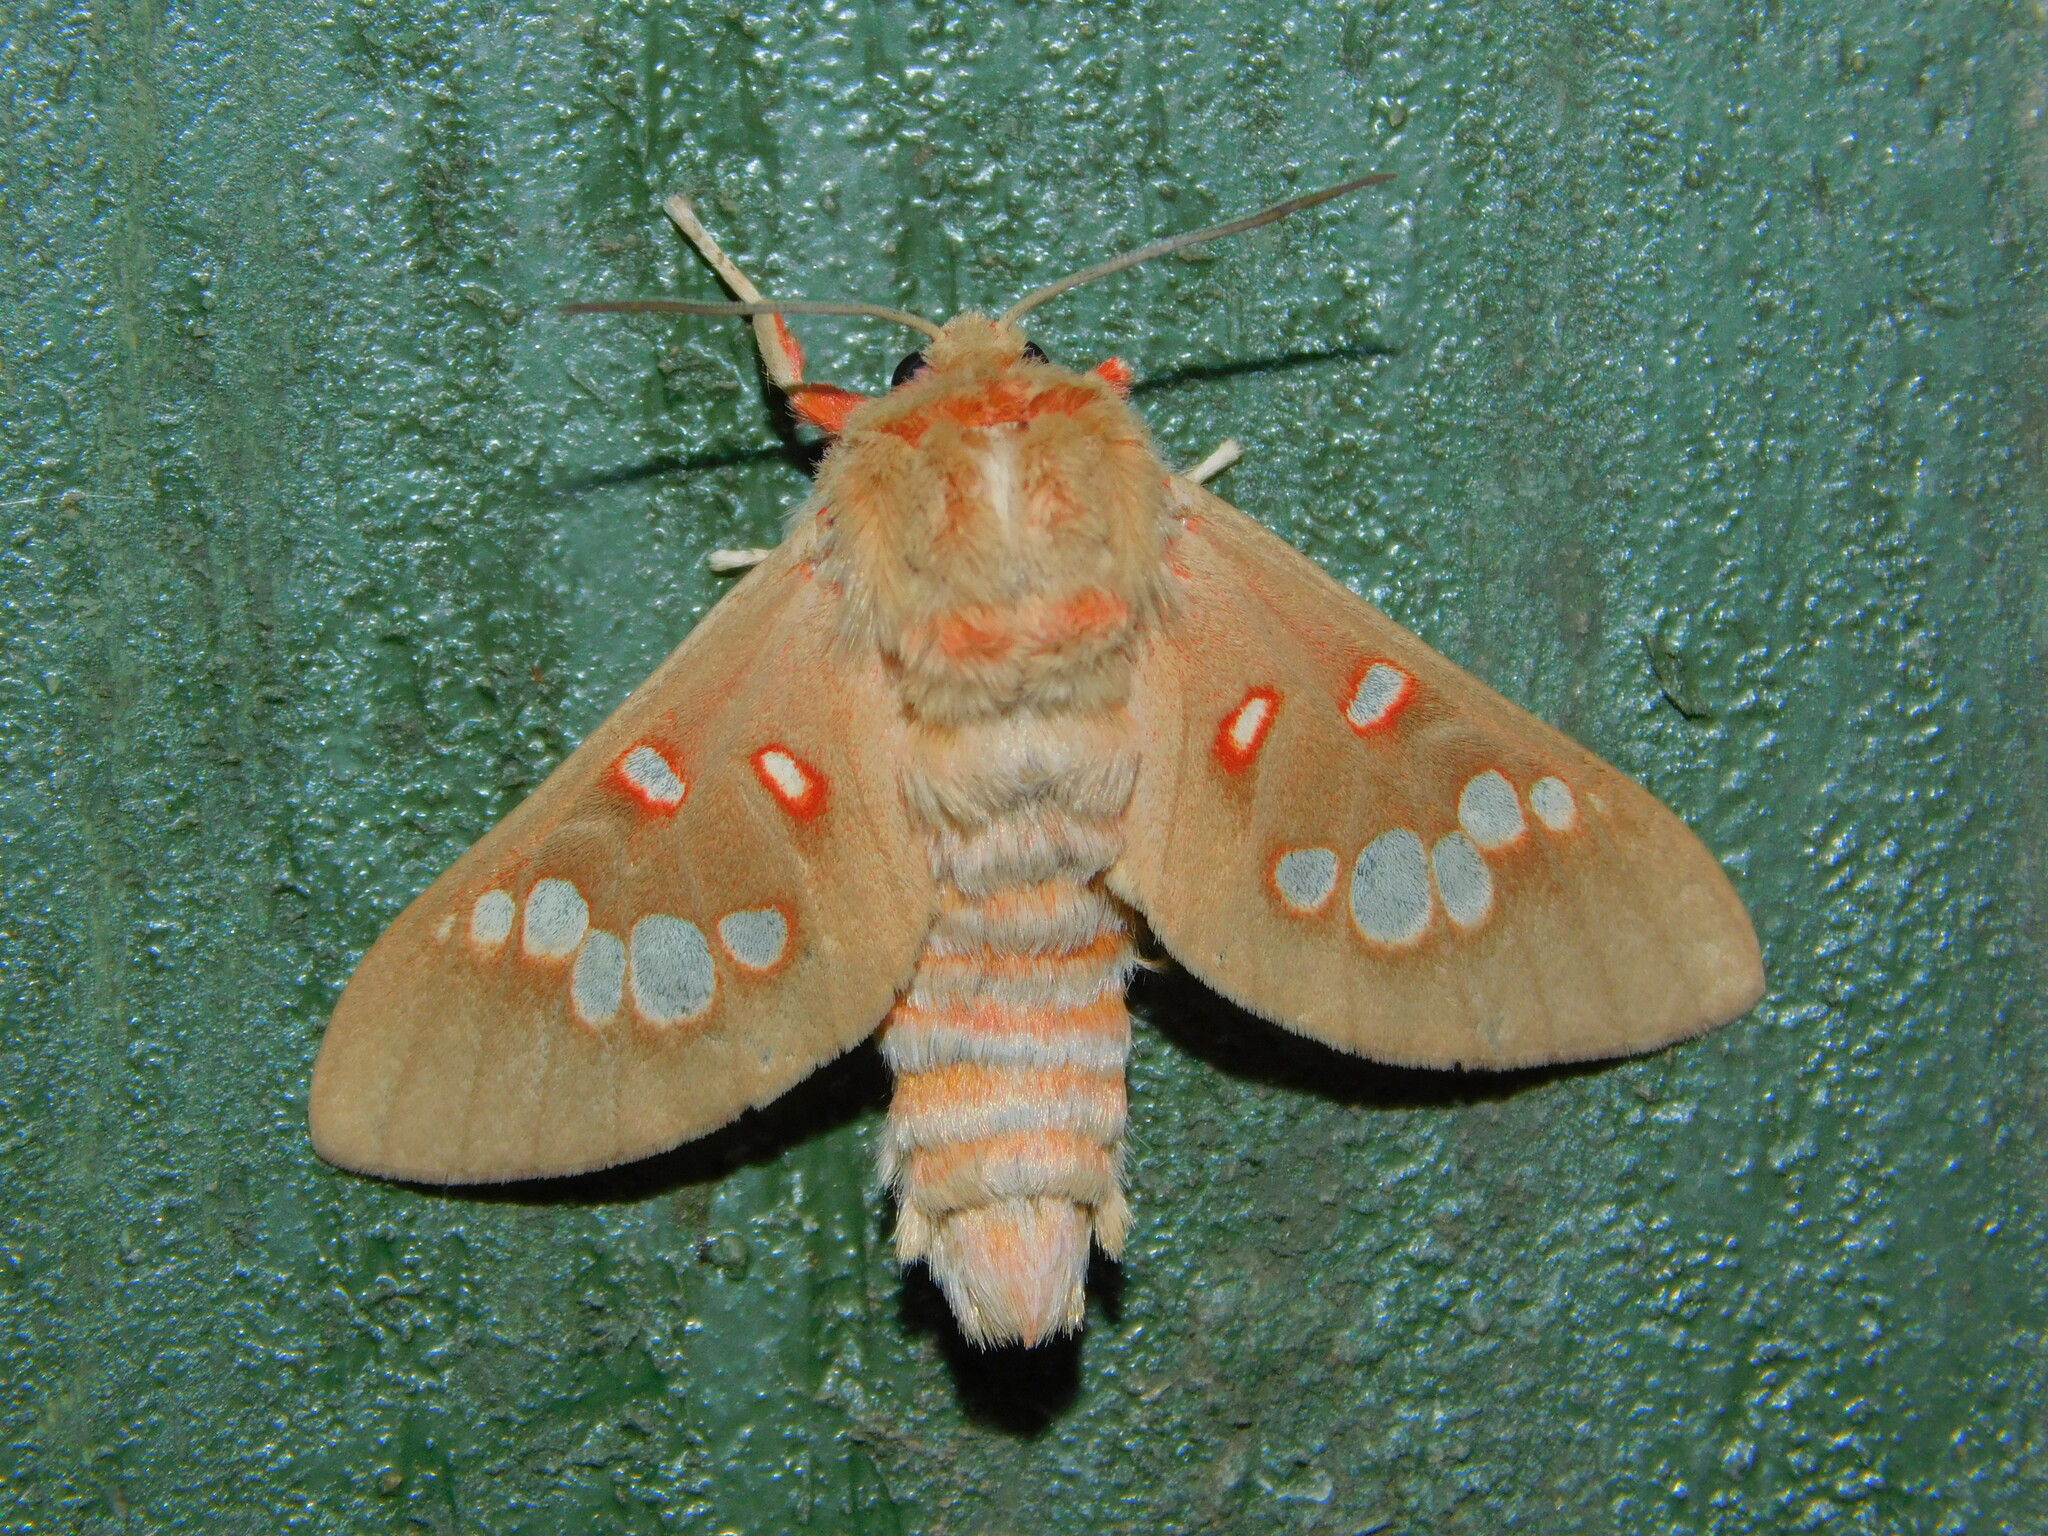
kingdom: Animalia
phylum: Arthropoda
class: Insecta
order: Lepidoptera
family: Erebidae
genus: Balacra
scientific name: Balacra preussi
